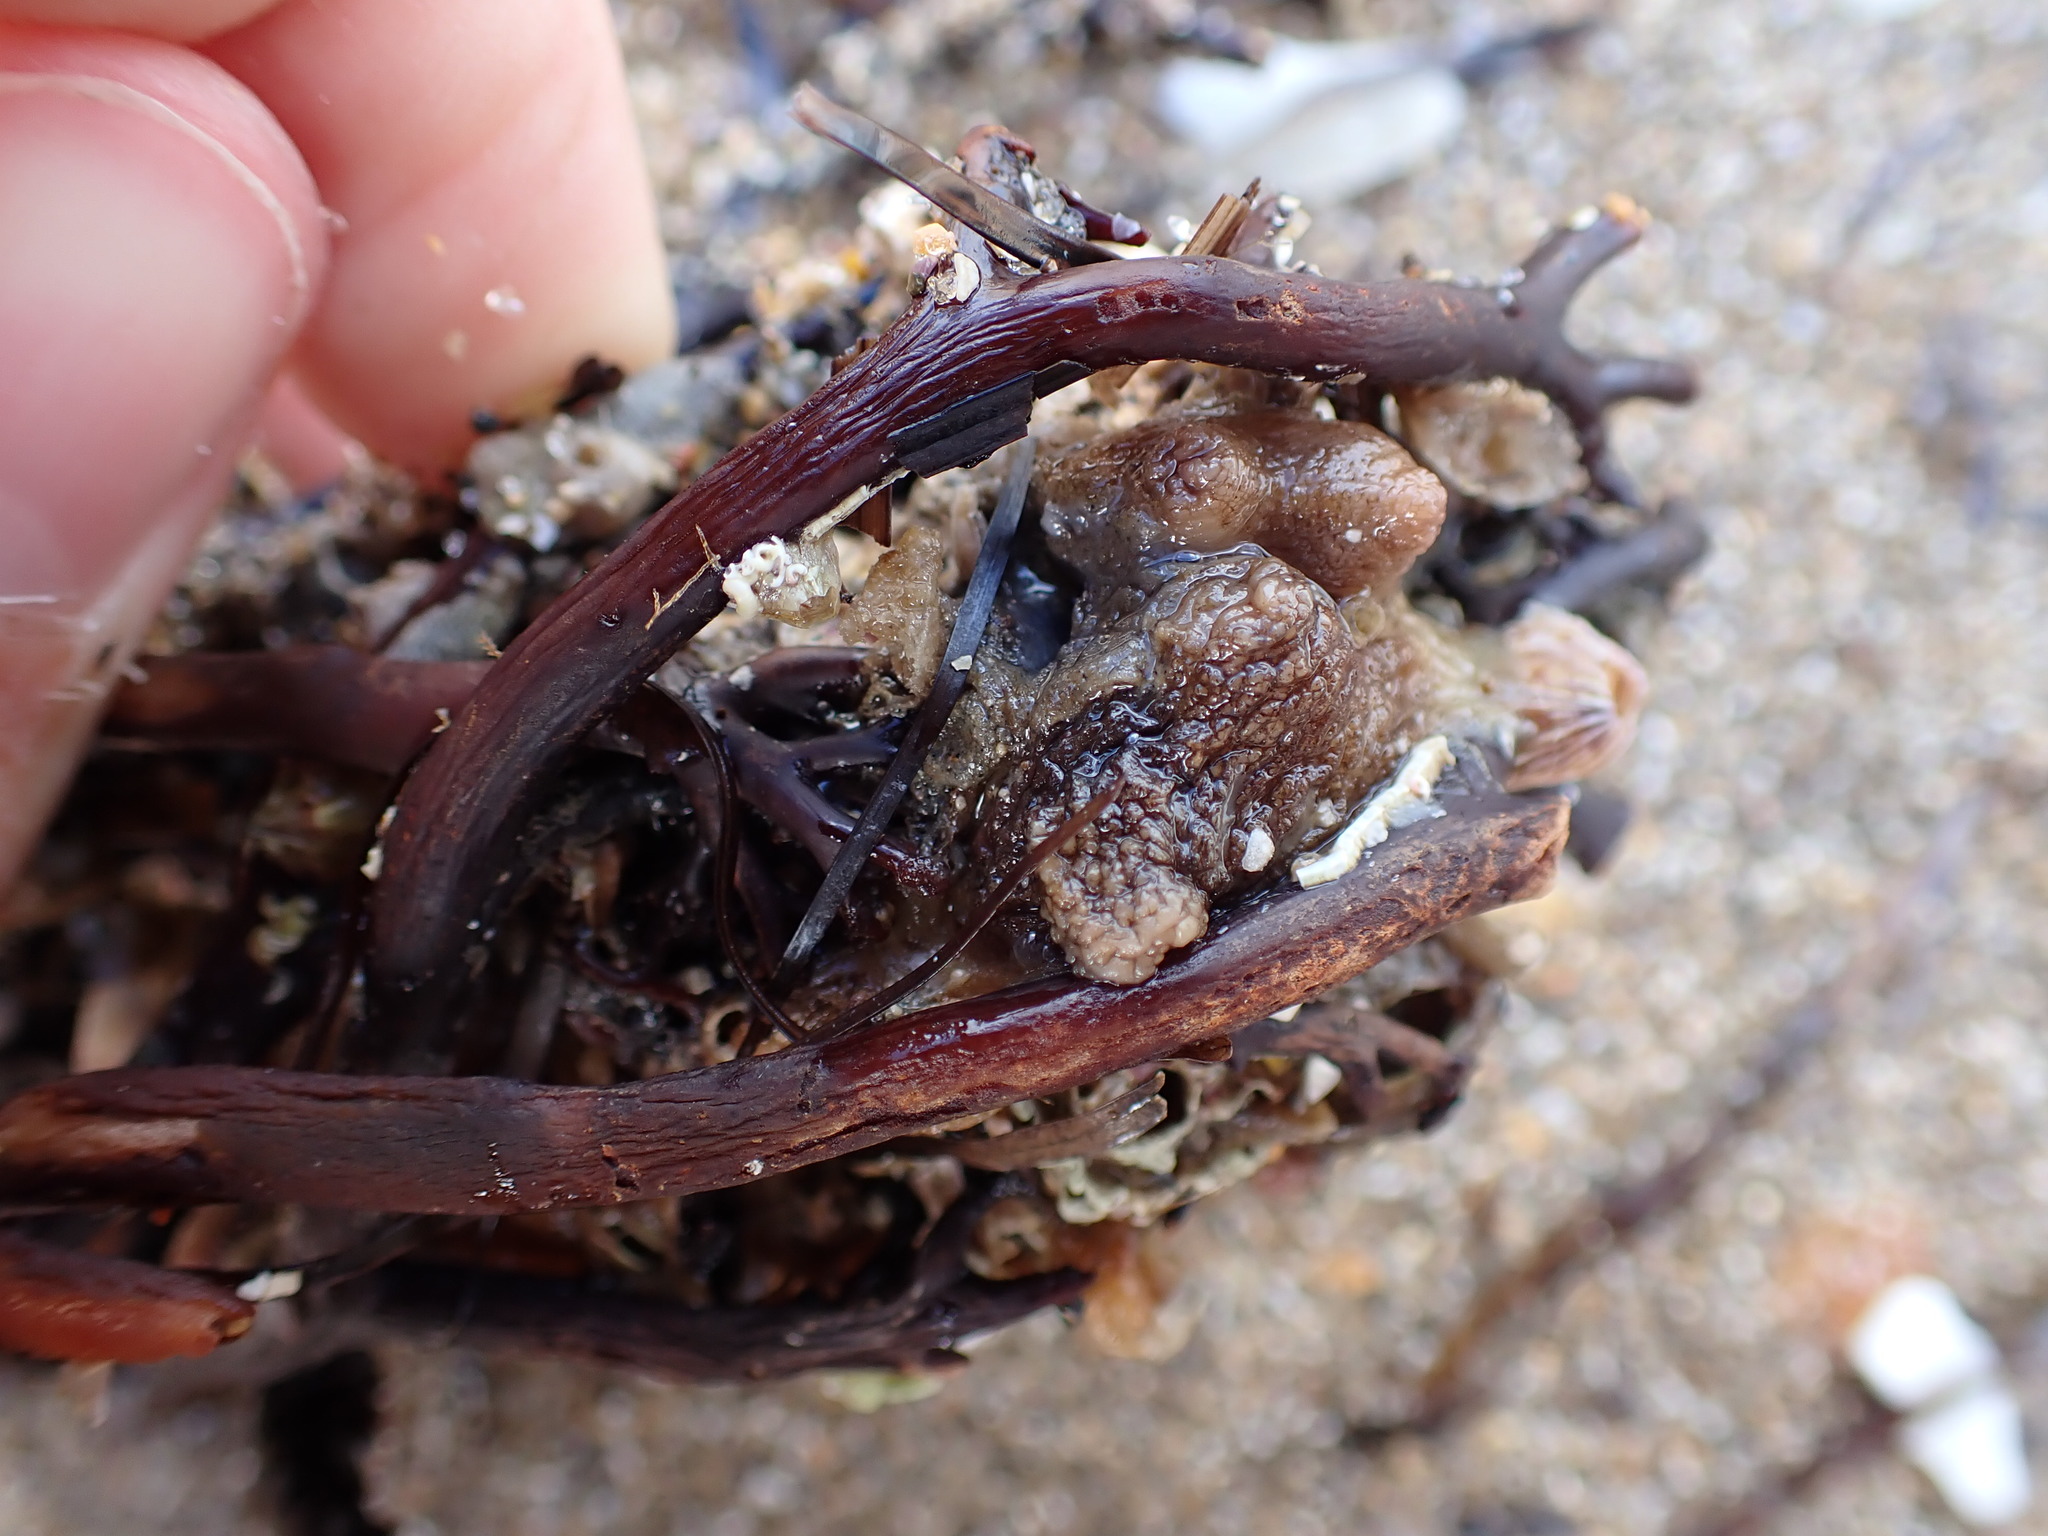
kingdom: Animalia
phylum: Chordata
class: Ascidiacea
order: Stolidobranchia
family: Styelidae
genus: Styela
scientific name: Styela plicata
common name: Pleated tunicate
